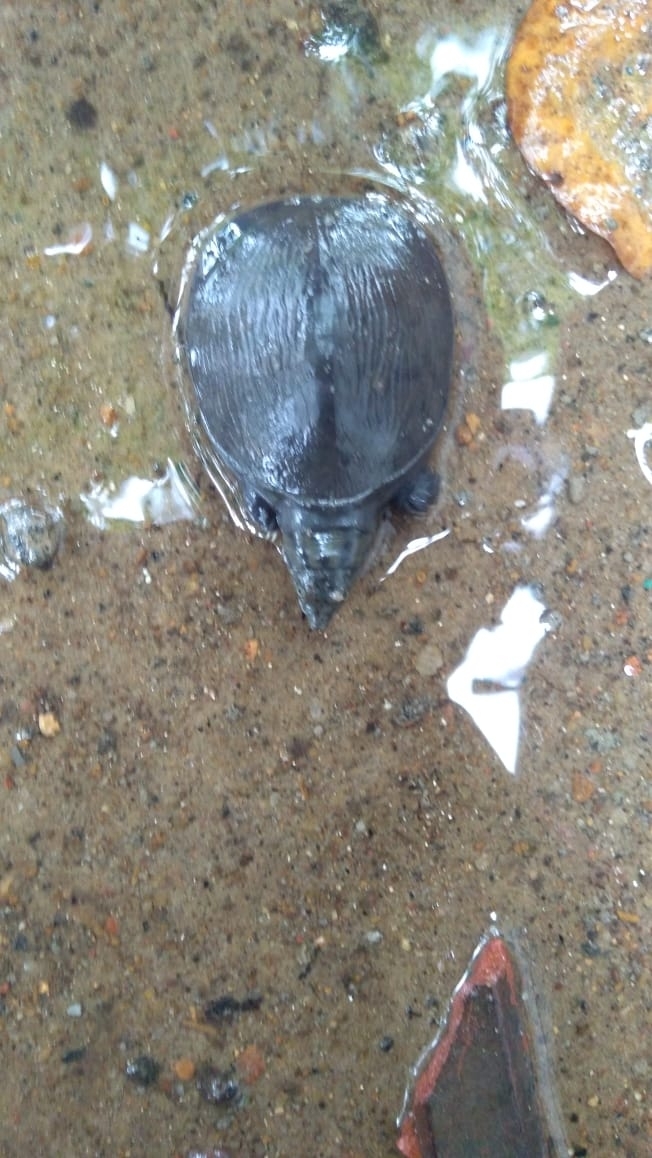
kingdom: Animalia
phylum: Chordata
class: Testudines
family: Trionychidae
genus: Lissemys
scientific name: Lissemys punctata
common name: Indian flap-shelled turtle
